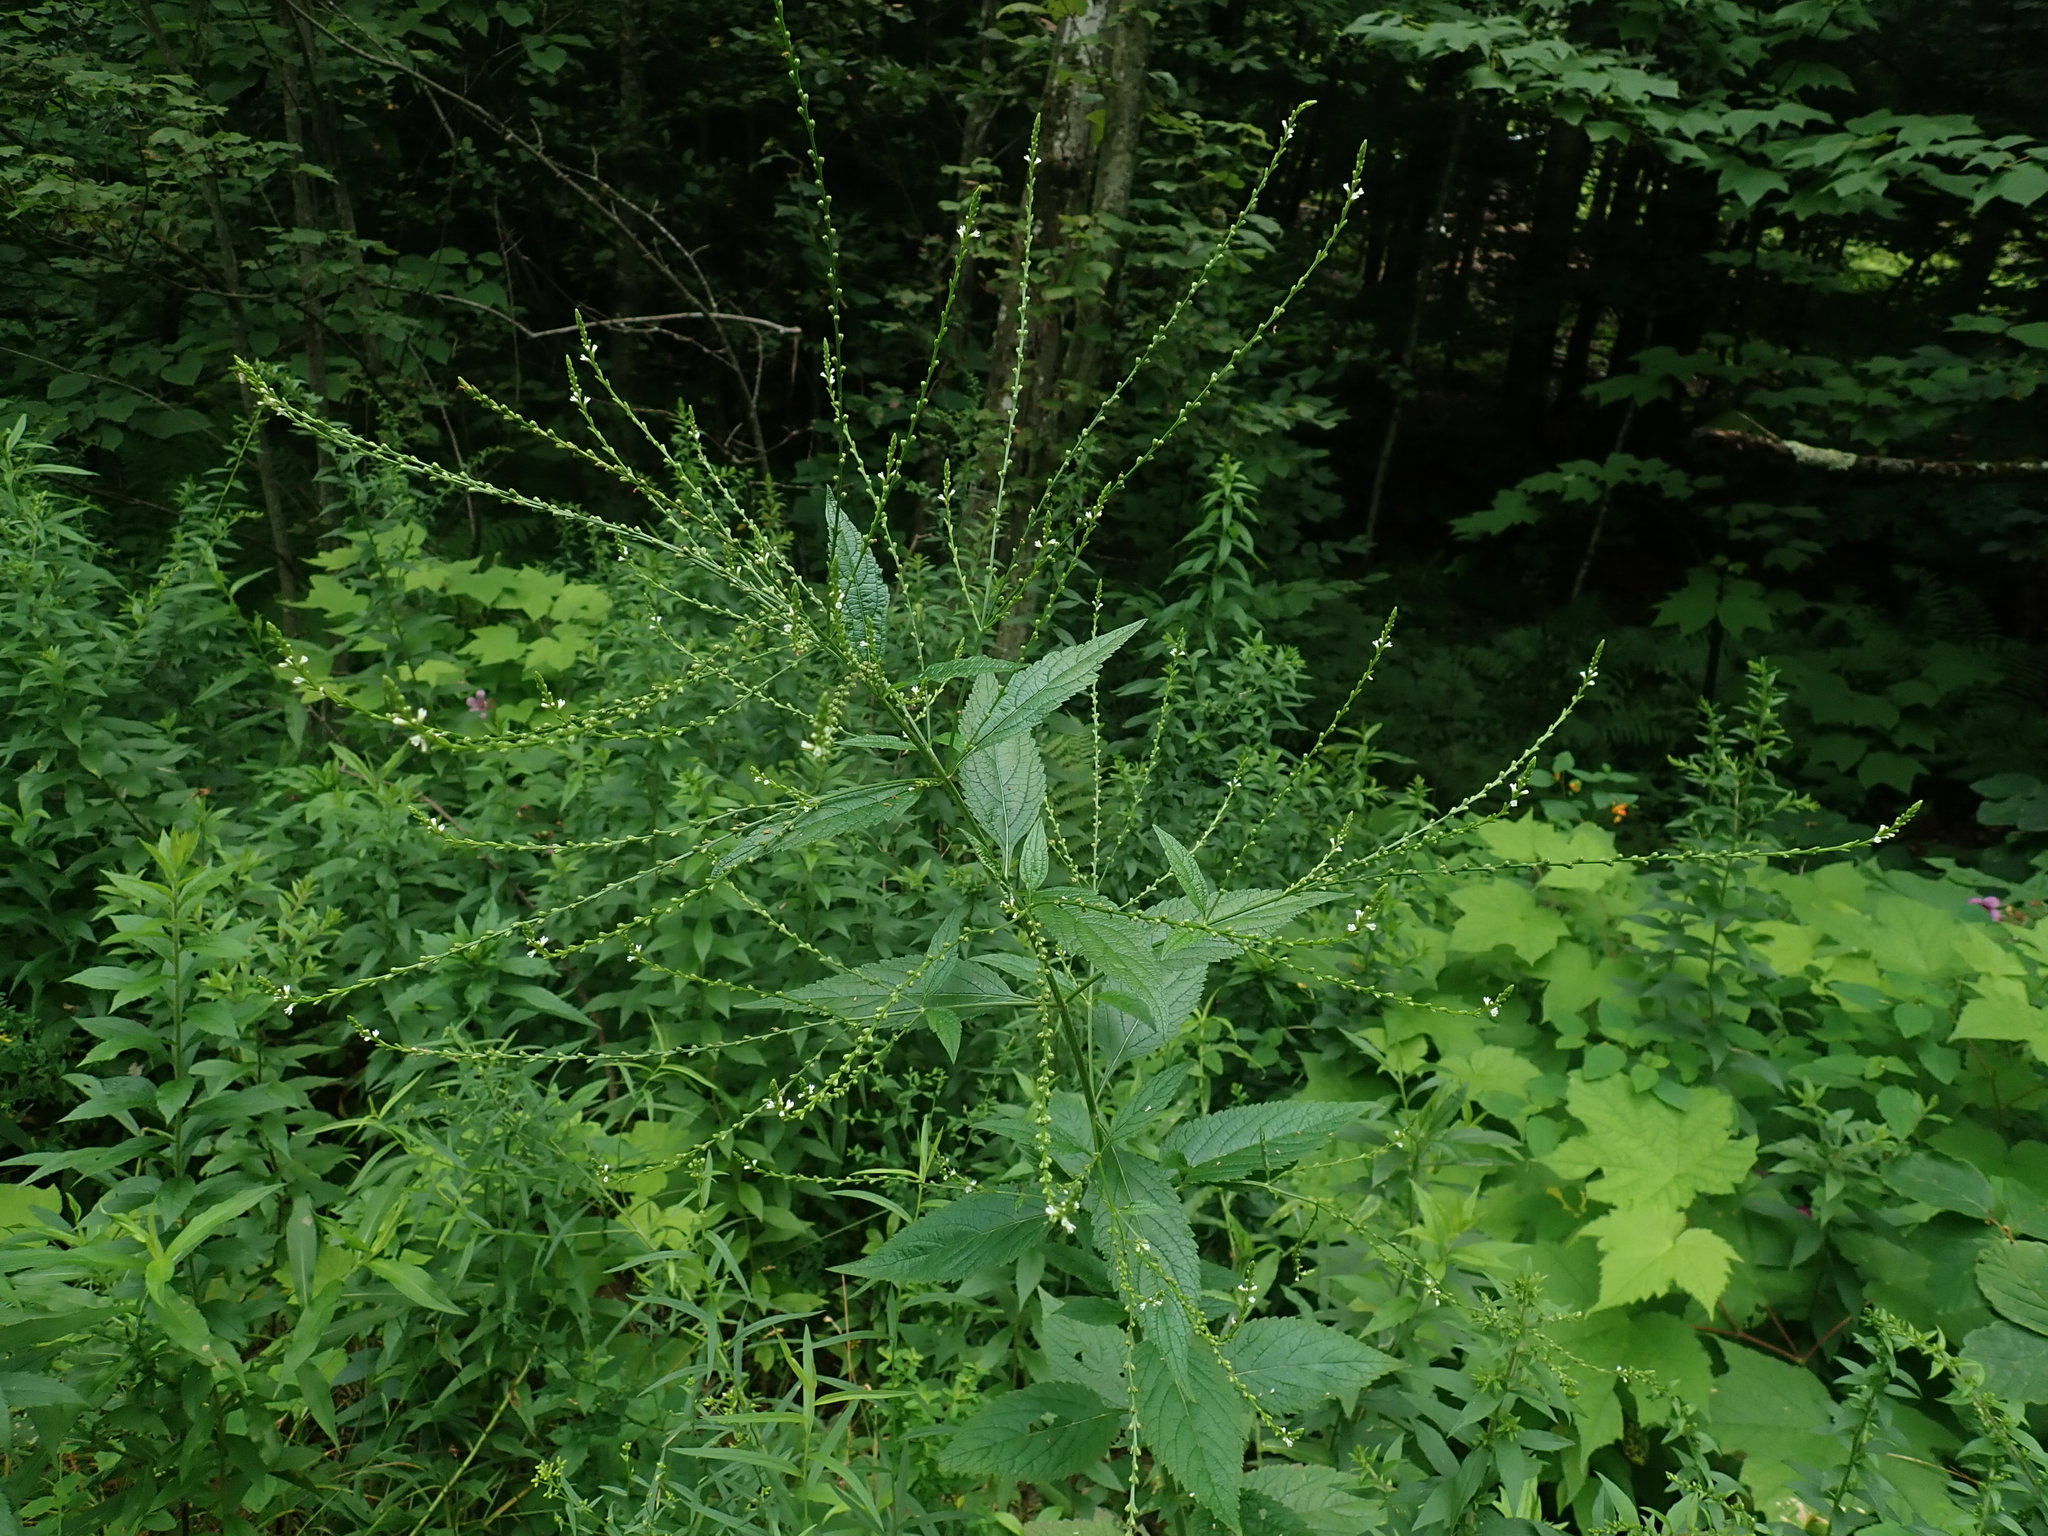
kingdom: Plantae
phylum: Tracheophyta
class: Magnoliopsida
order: Lamiales
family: Verbenaceae
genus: Verbena
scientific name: Verbena urticifolia
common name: Nettle-leaved vervain
